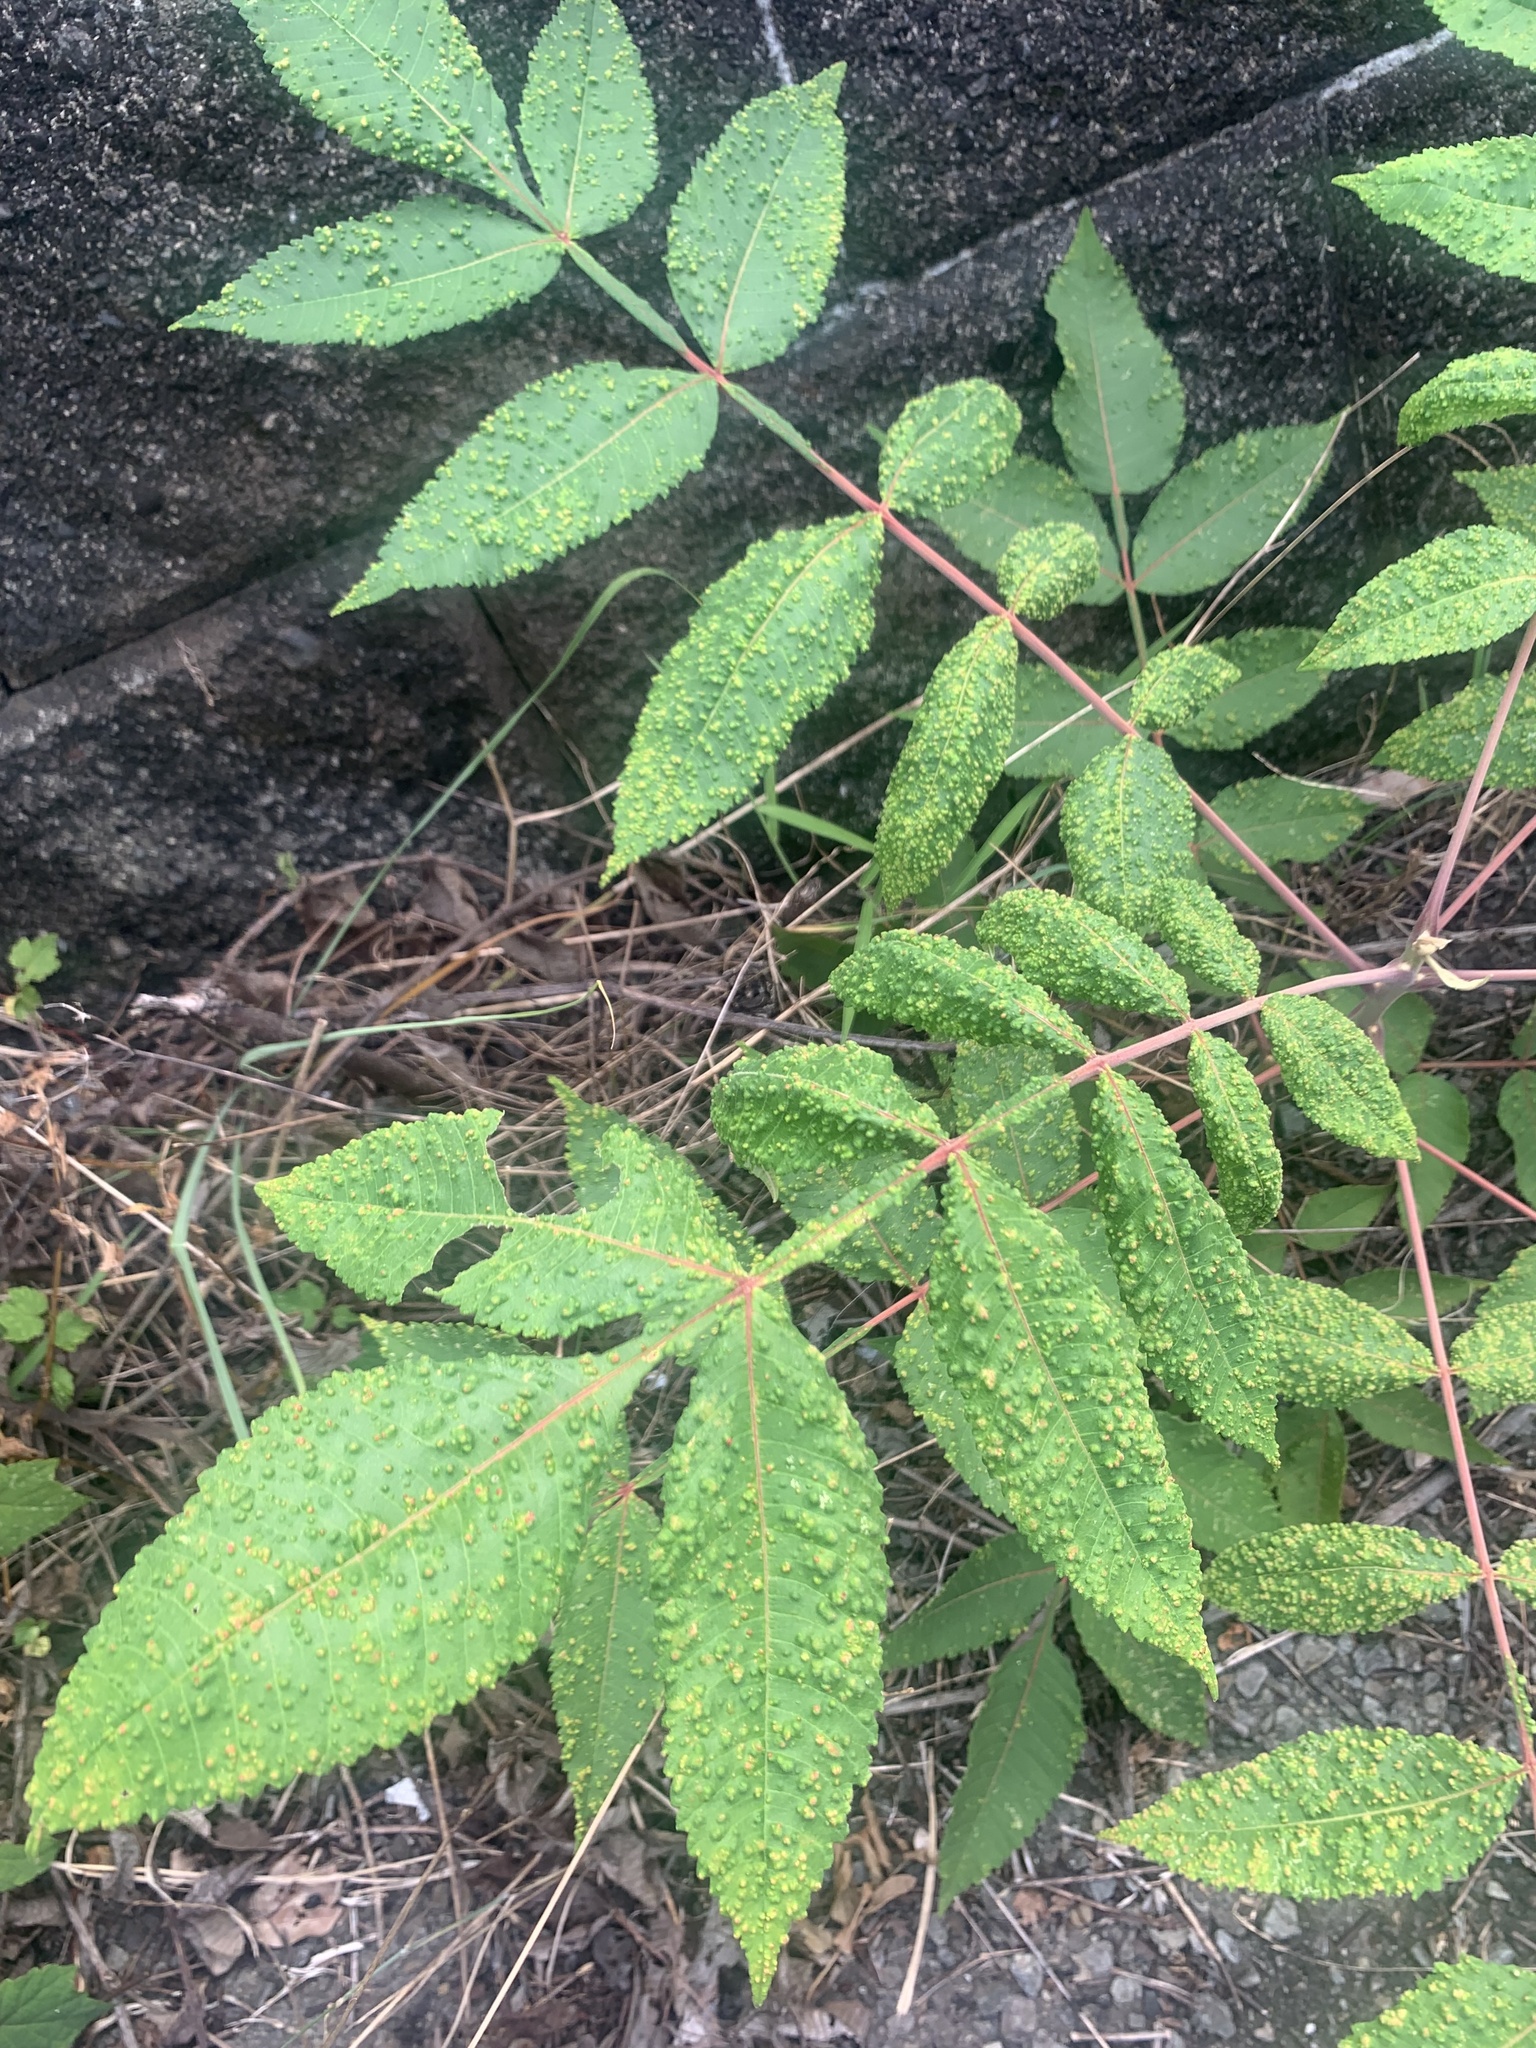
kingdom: Animalia
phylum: Arthropoda
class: Arachnida
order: Trombidiformes
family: Eriophyidae
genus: Aculops
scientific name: Aculops chinonei
